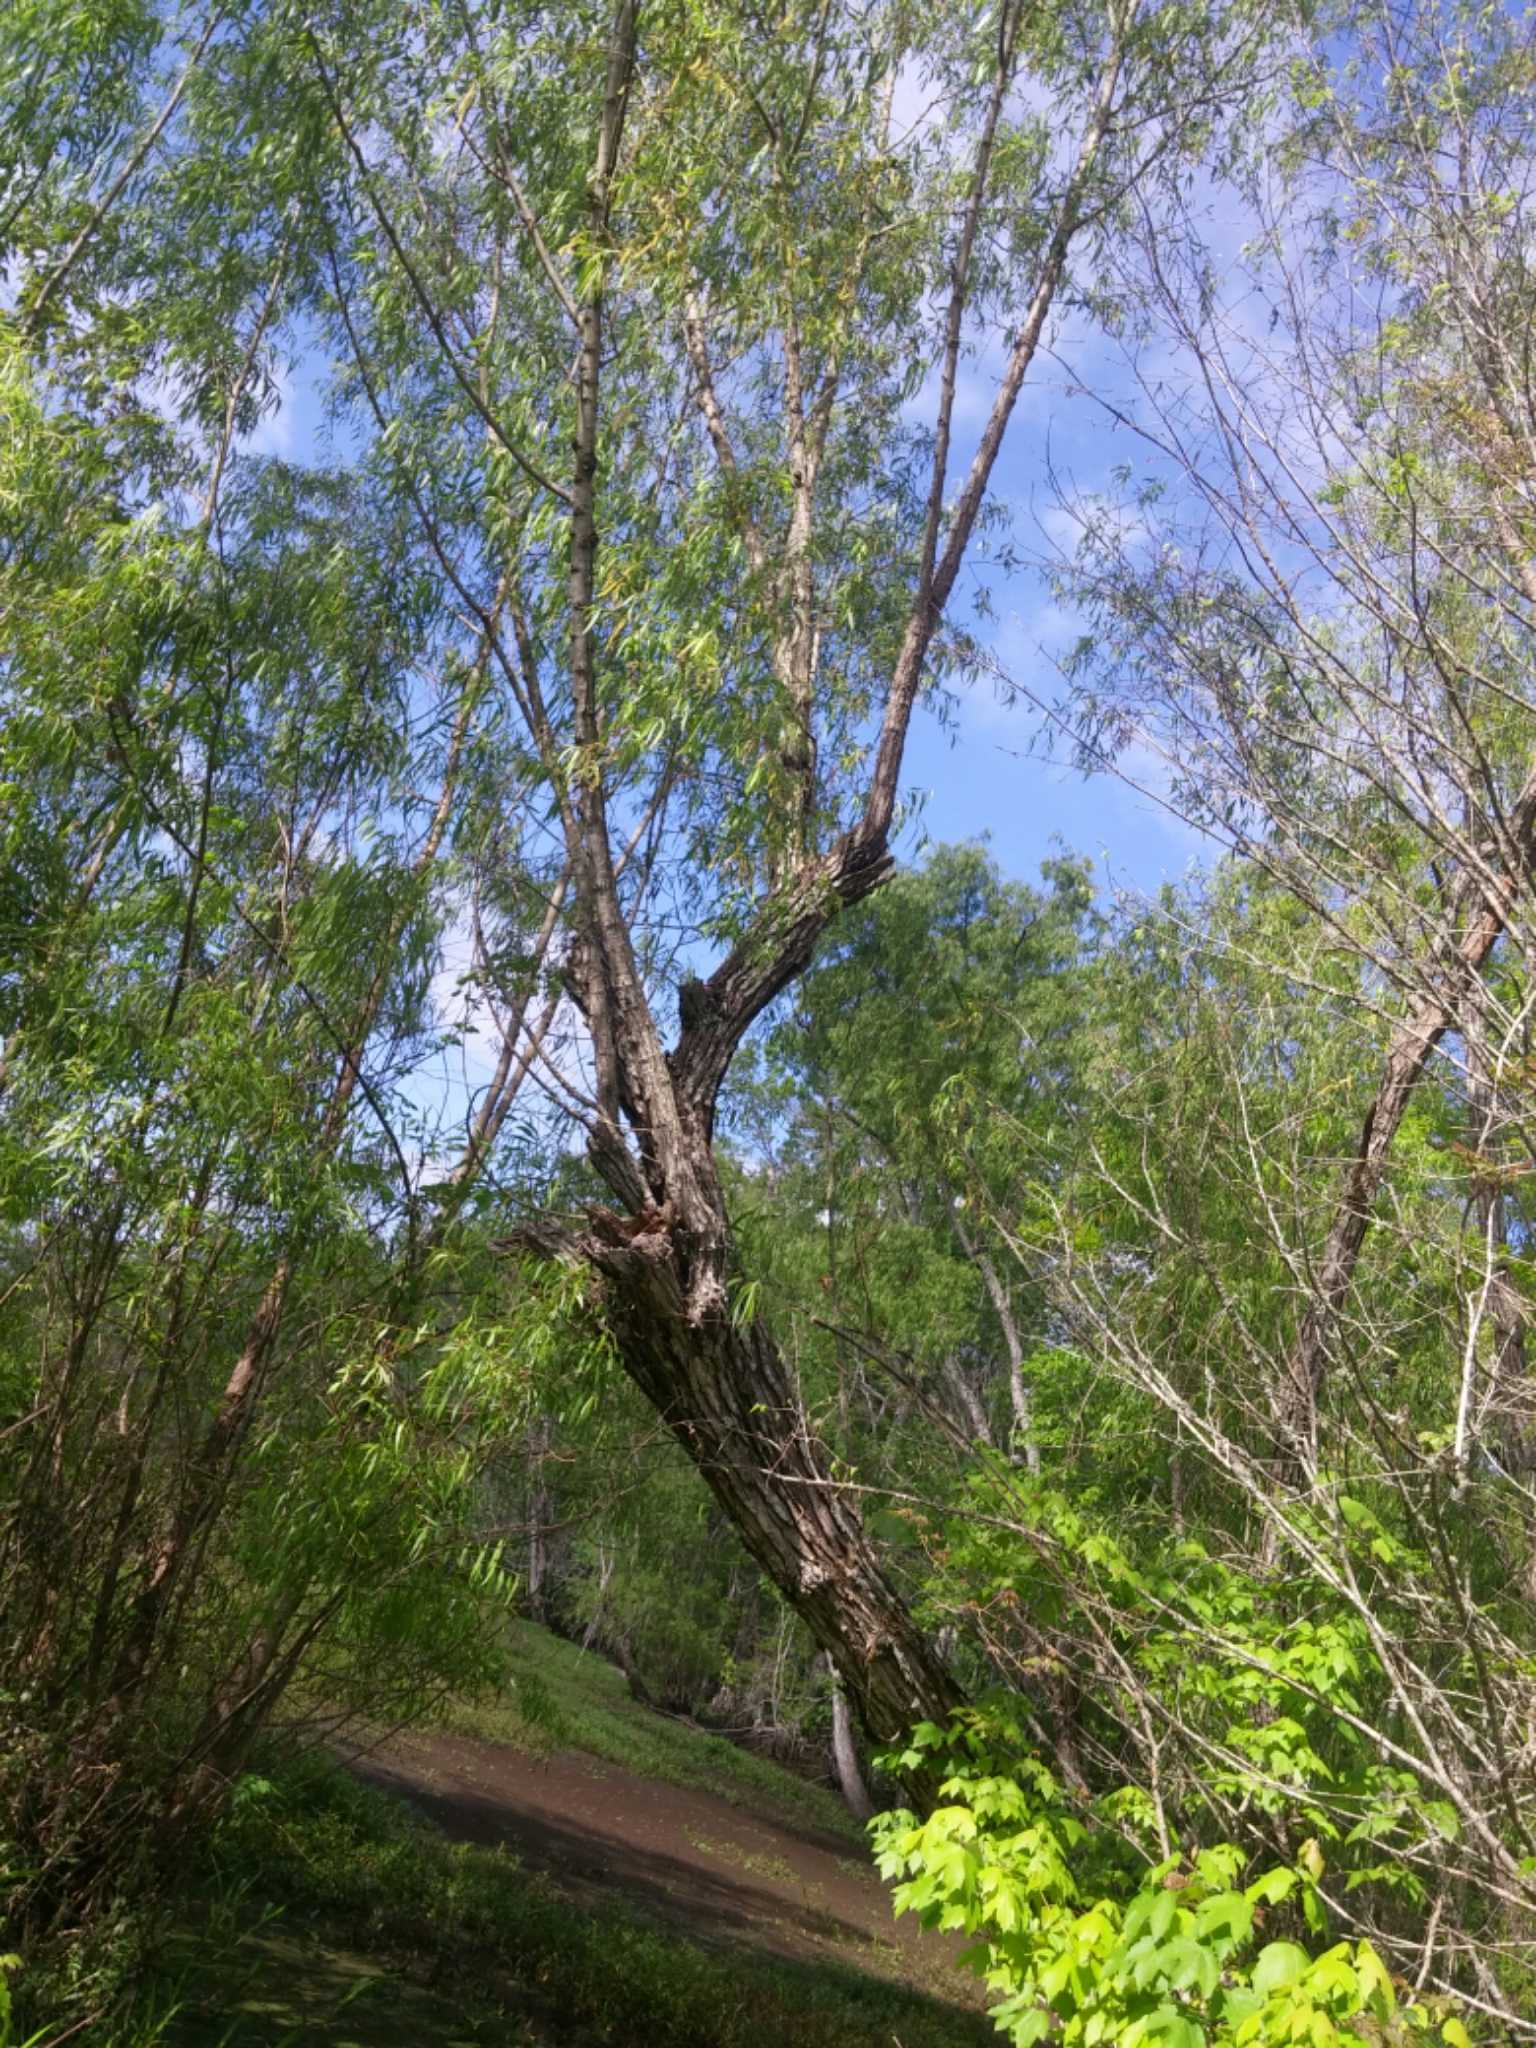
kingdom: Plantae
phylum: Tracheophyta
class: Magnoliopsida
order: Malpighiales
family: Salicaceae
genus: Salix
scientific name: Salix nigra
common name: Black willow
